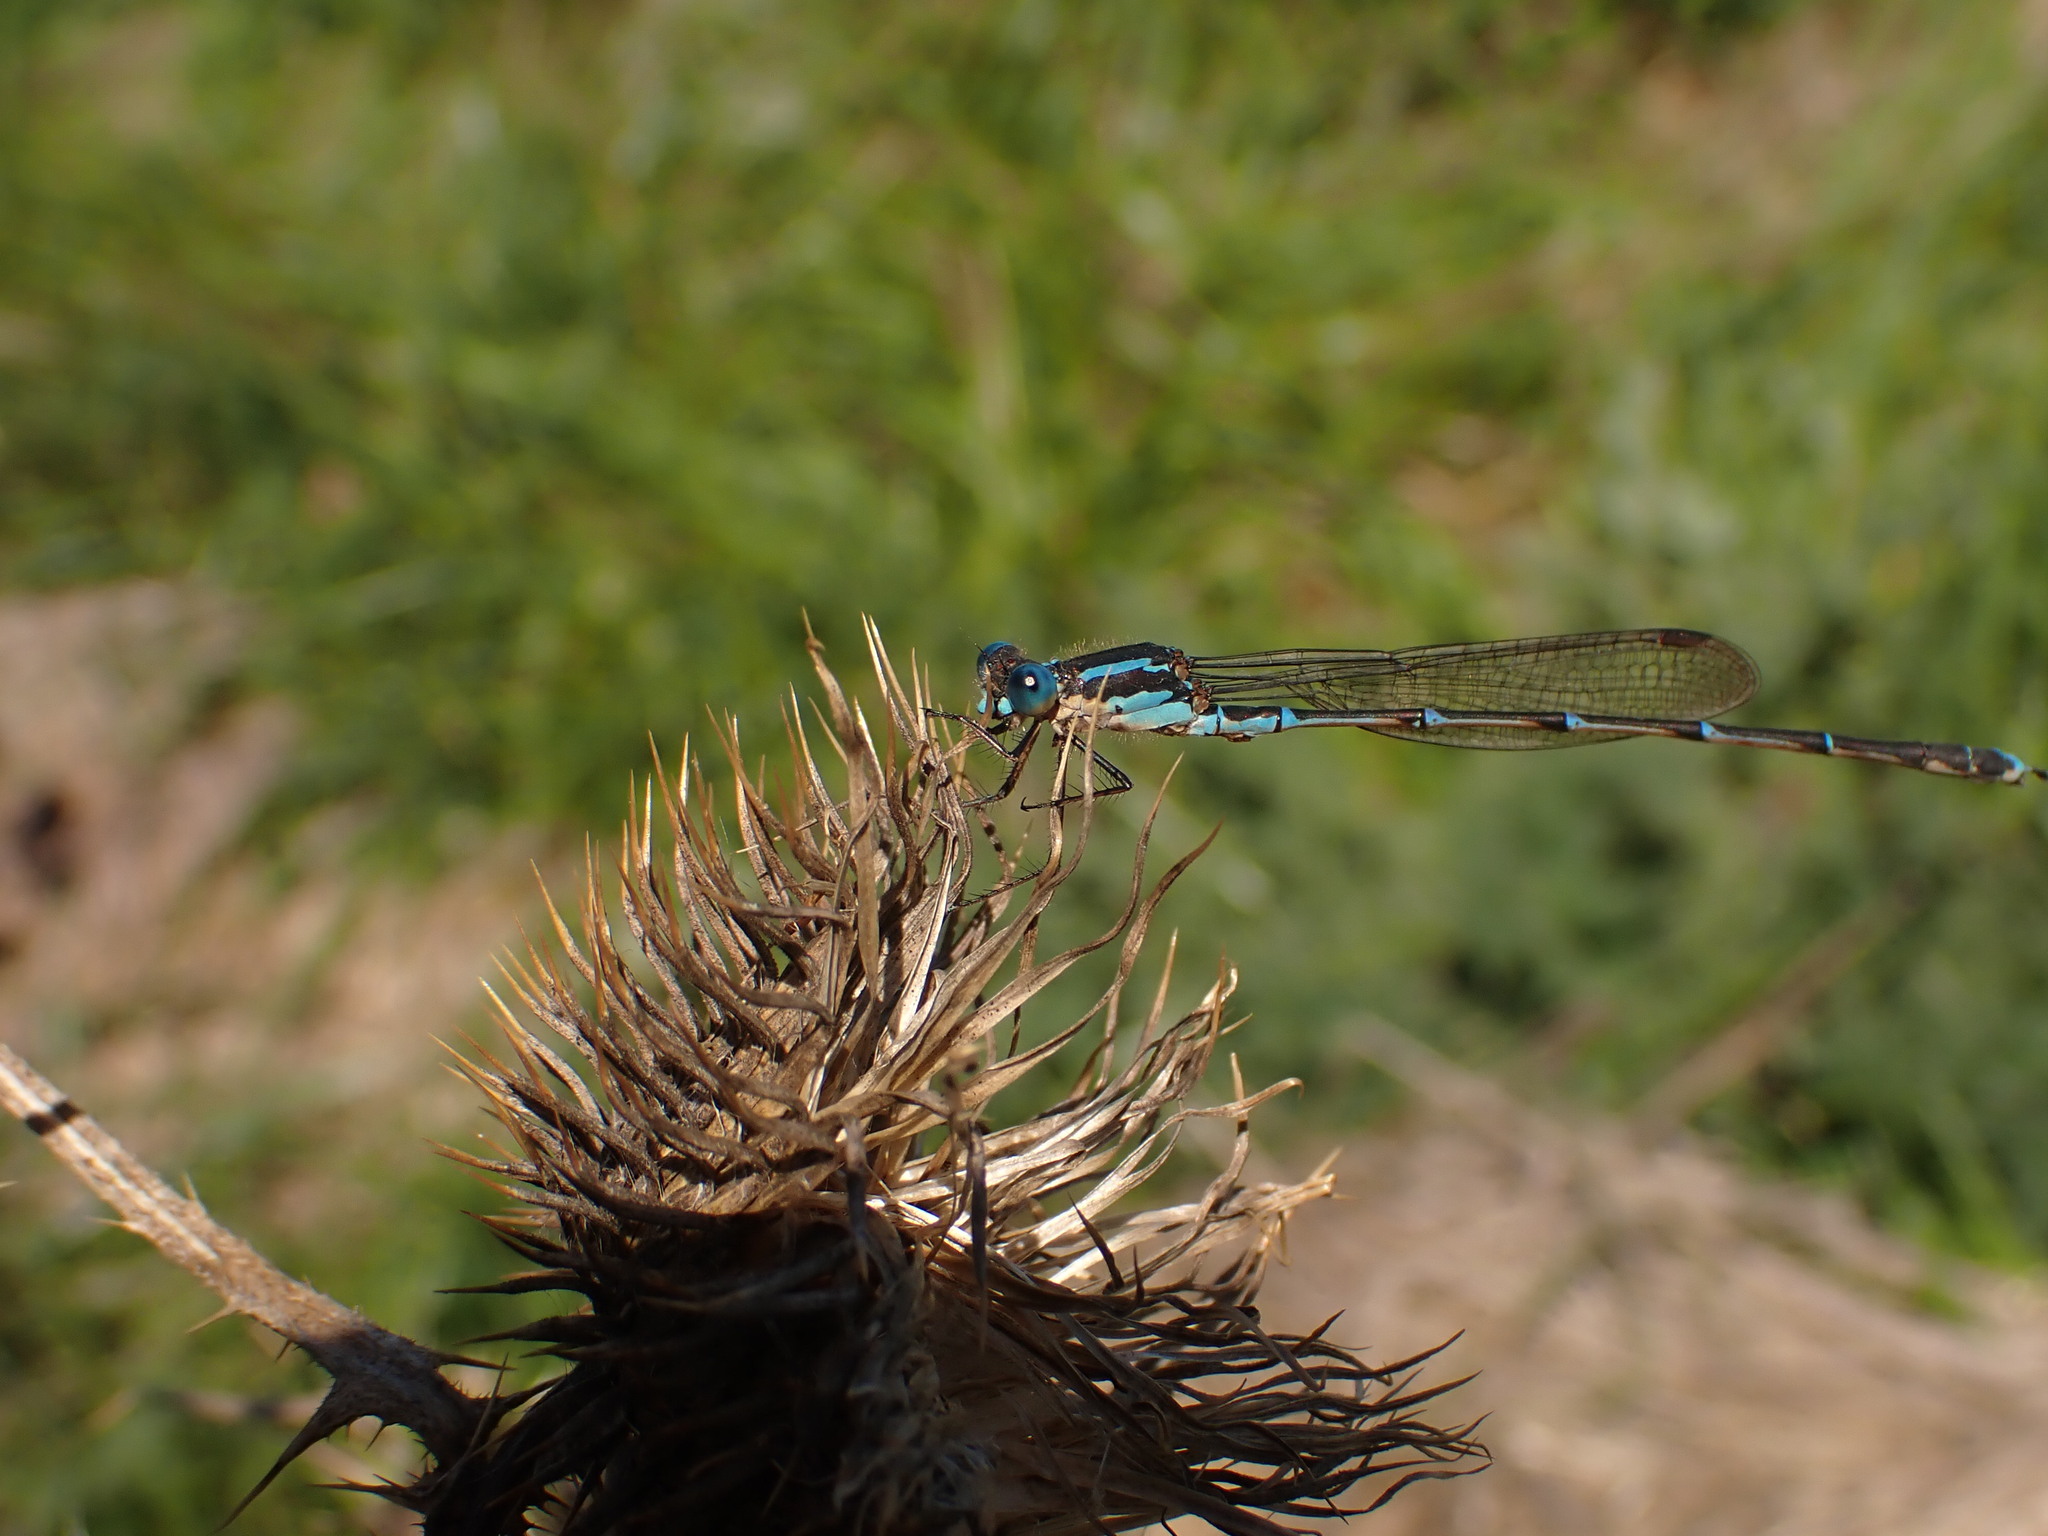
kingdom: Animalia
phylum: Arthropoda
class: Insecta
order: Odonata
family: Lestidae
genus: Austrolestes
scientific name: Austrolestes colensonis
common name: Blue damselfly
